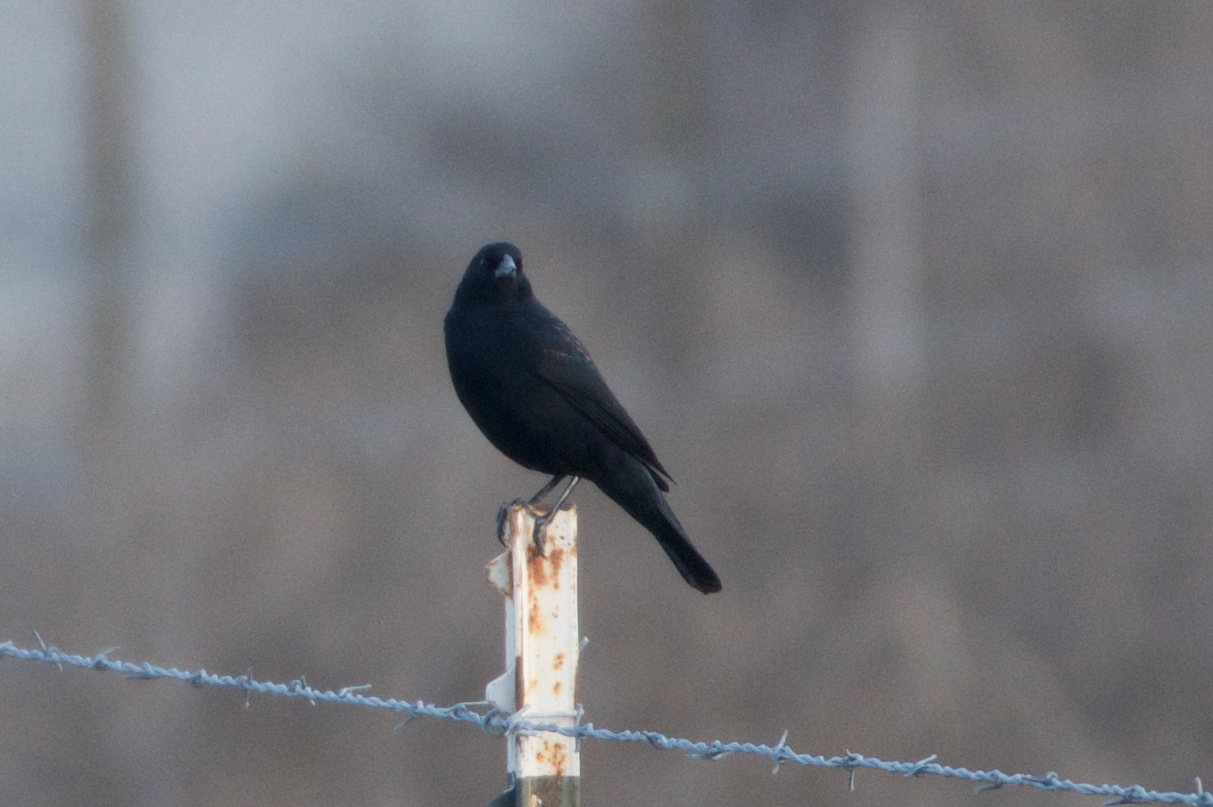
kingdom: Animalia
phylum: Chordata
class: Aves
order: Passeriformes
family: Icteridae
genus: Agelaius
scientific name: Agelaius phoeniceus
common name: Red-winged blackbird
